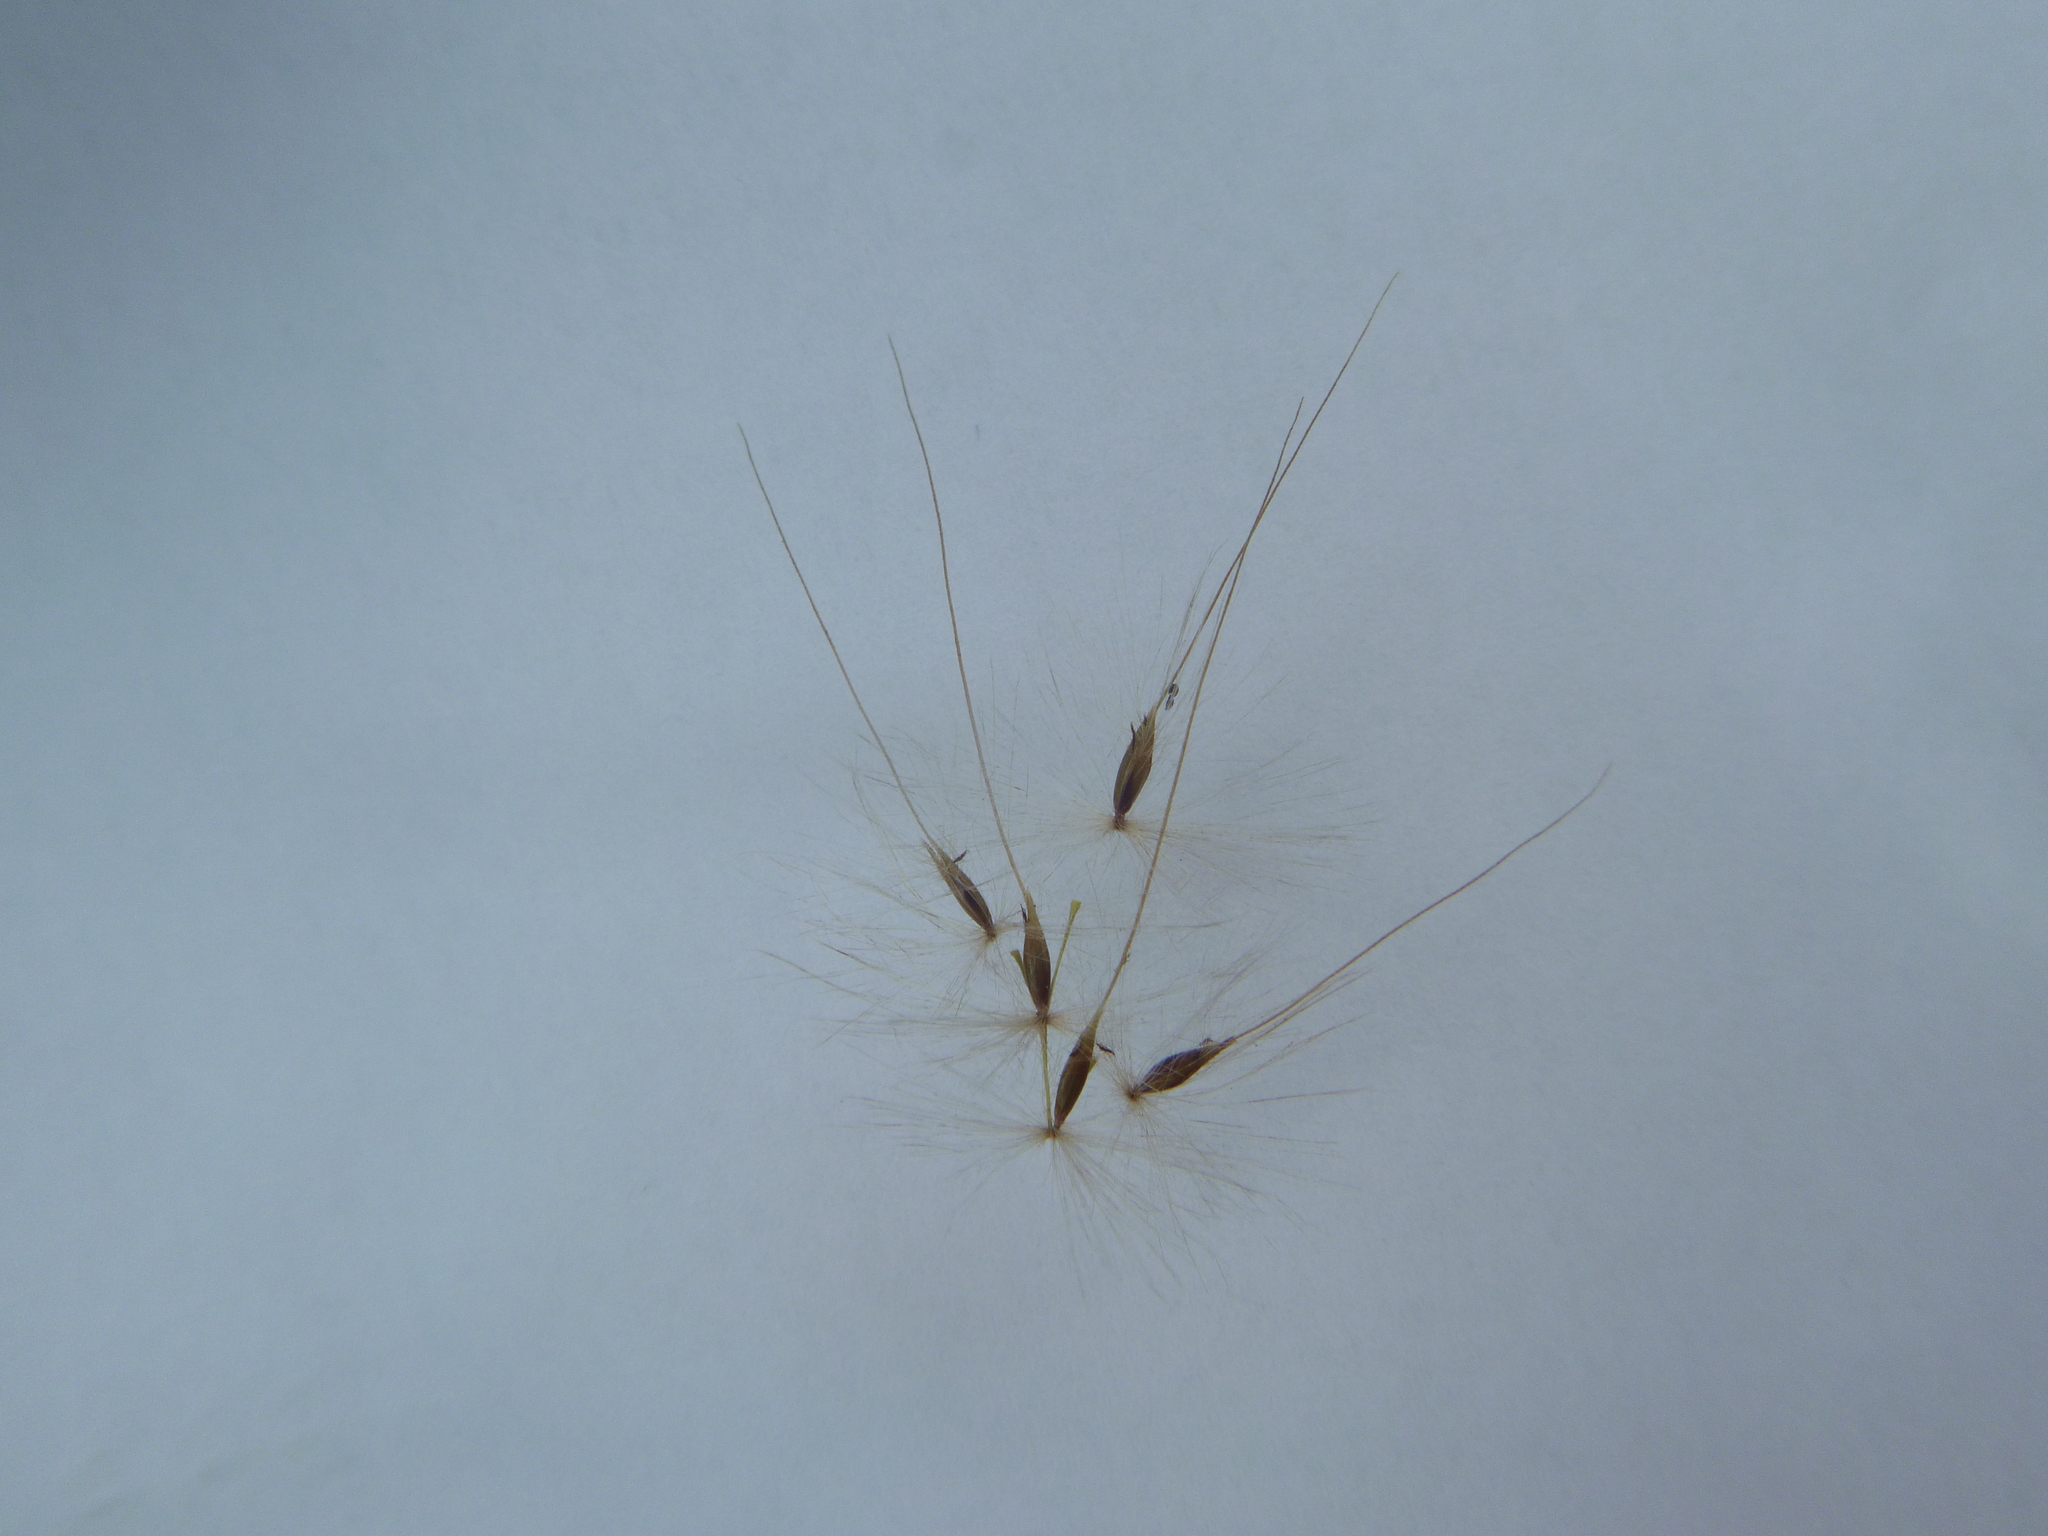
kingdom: Plantae
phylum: Tracheophyta
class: Liliopsida
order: Poales
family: Poaceae
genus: Erianthus
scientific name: Erianthus brevibarbis
